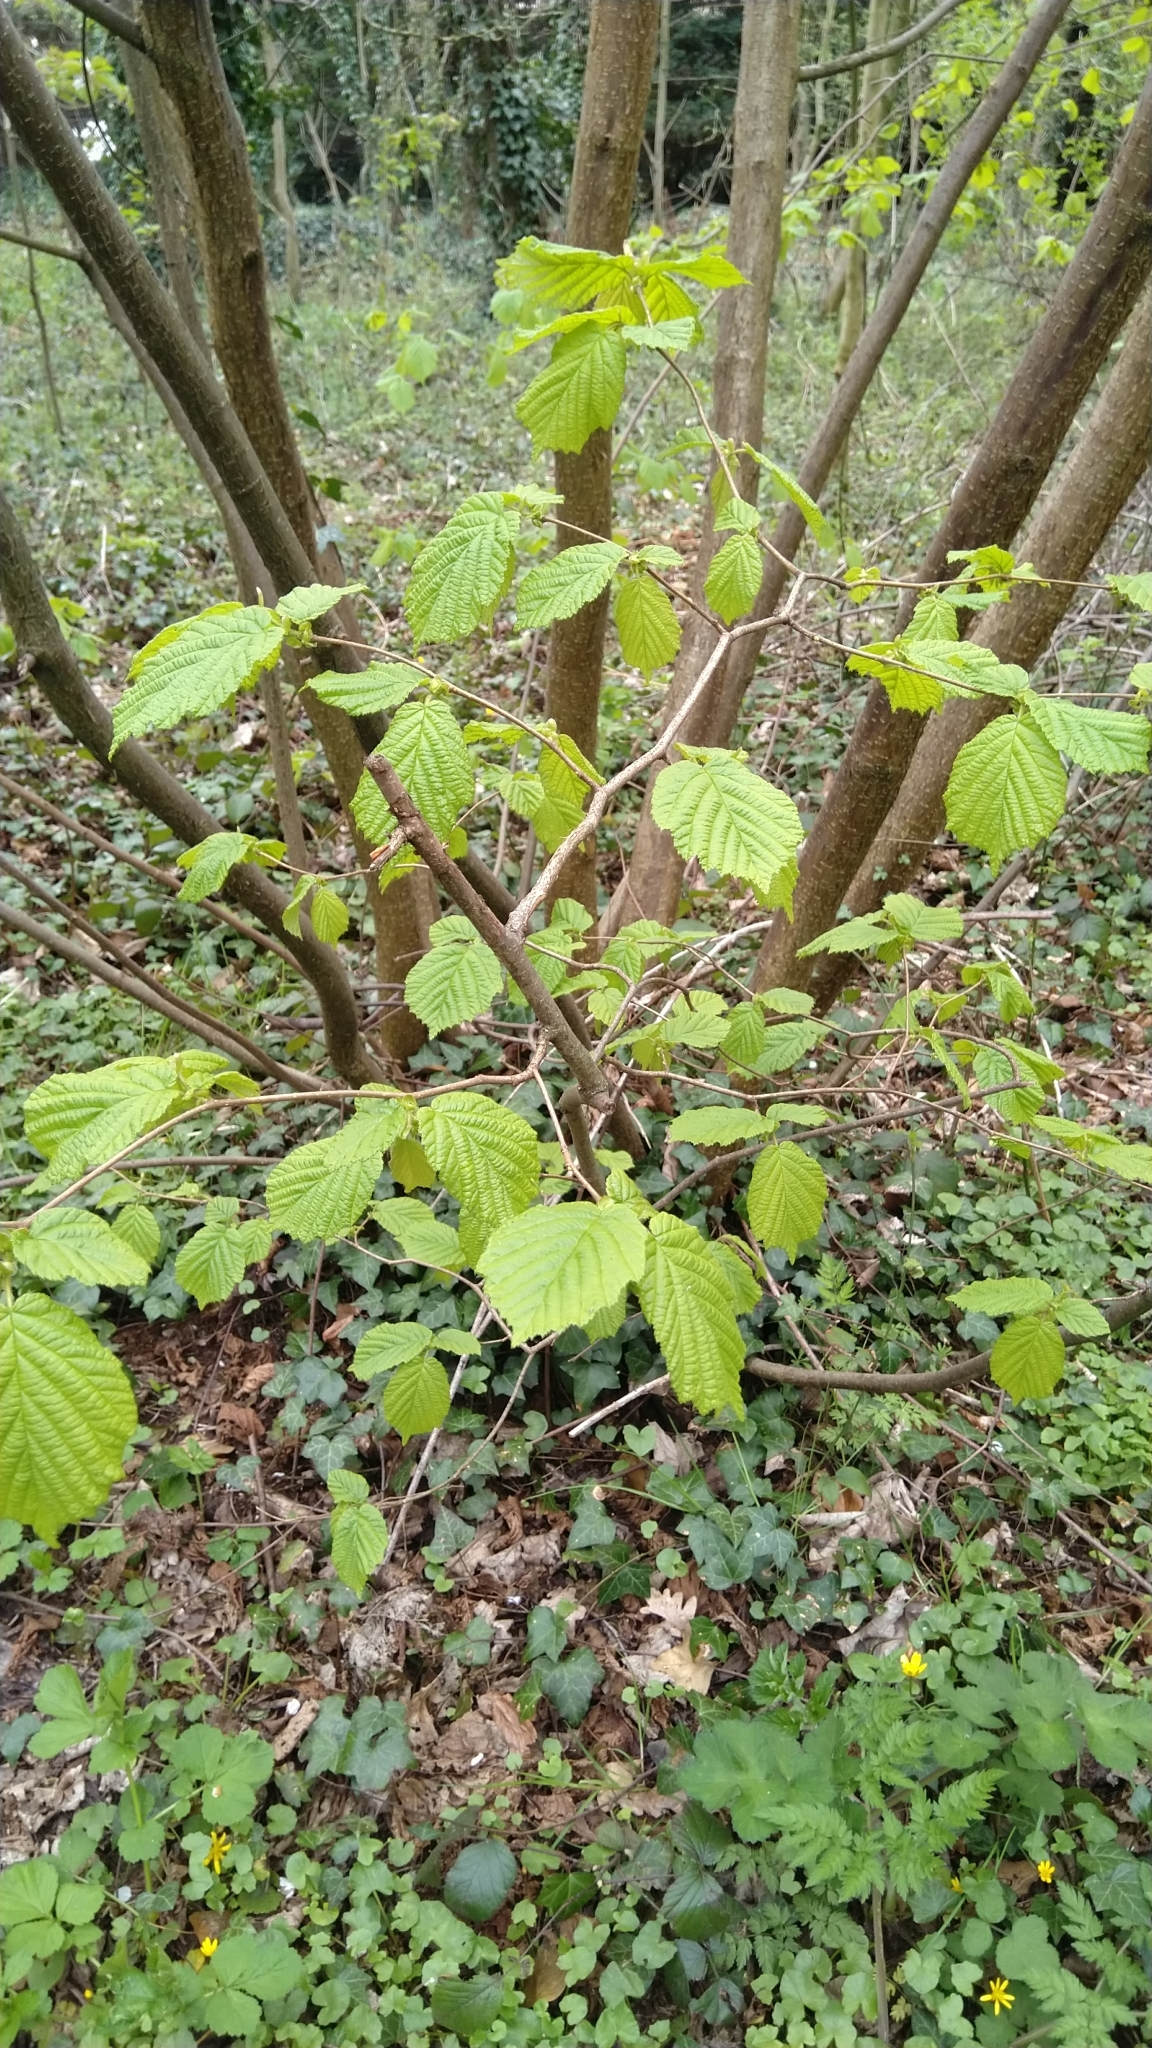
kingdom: Plantae
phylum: Tracheophyta
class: Magnoliopsida
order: Fagales
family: Betulaceae
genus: Corylus
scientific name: Corylus avellana
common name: European hazel
